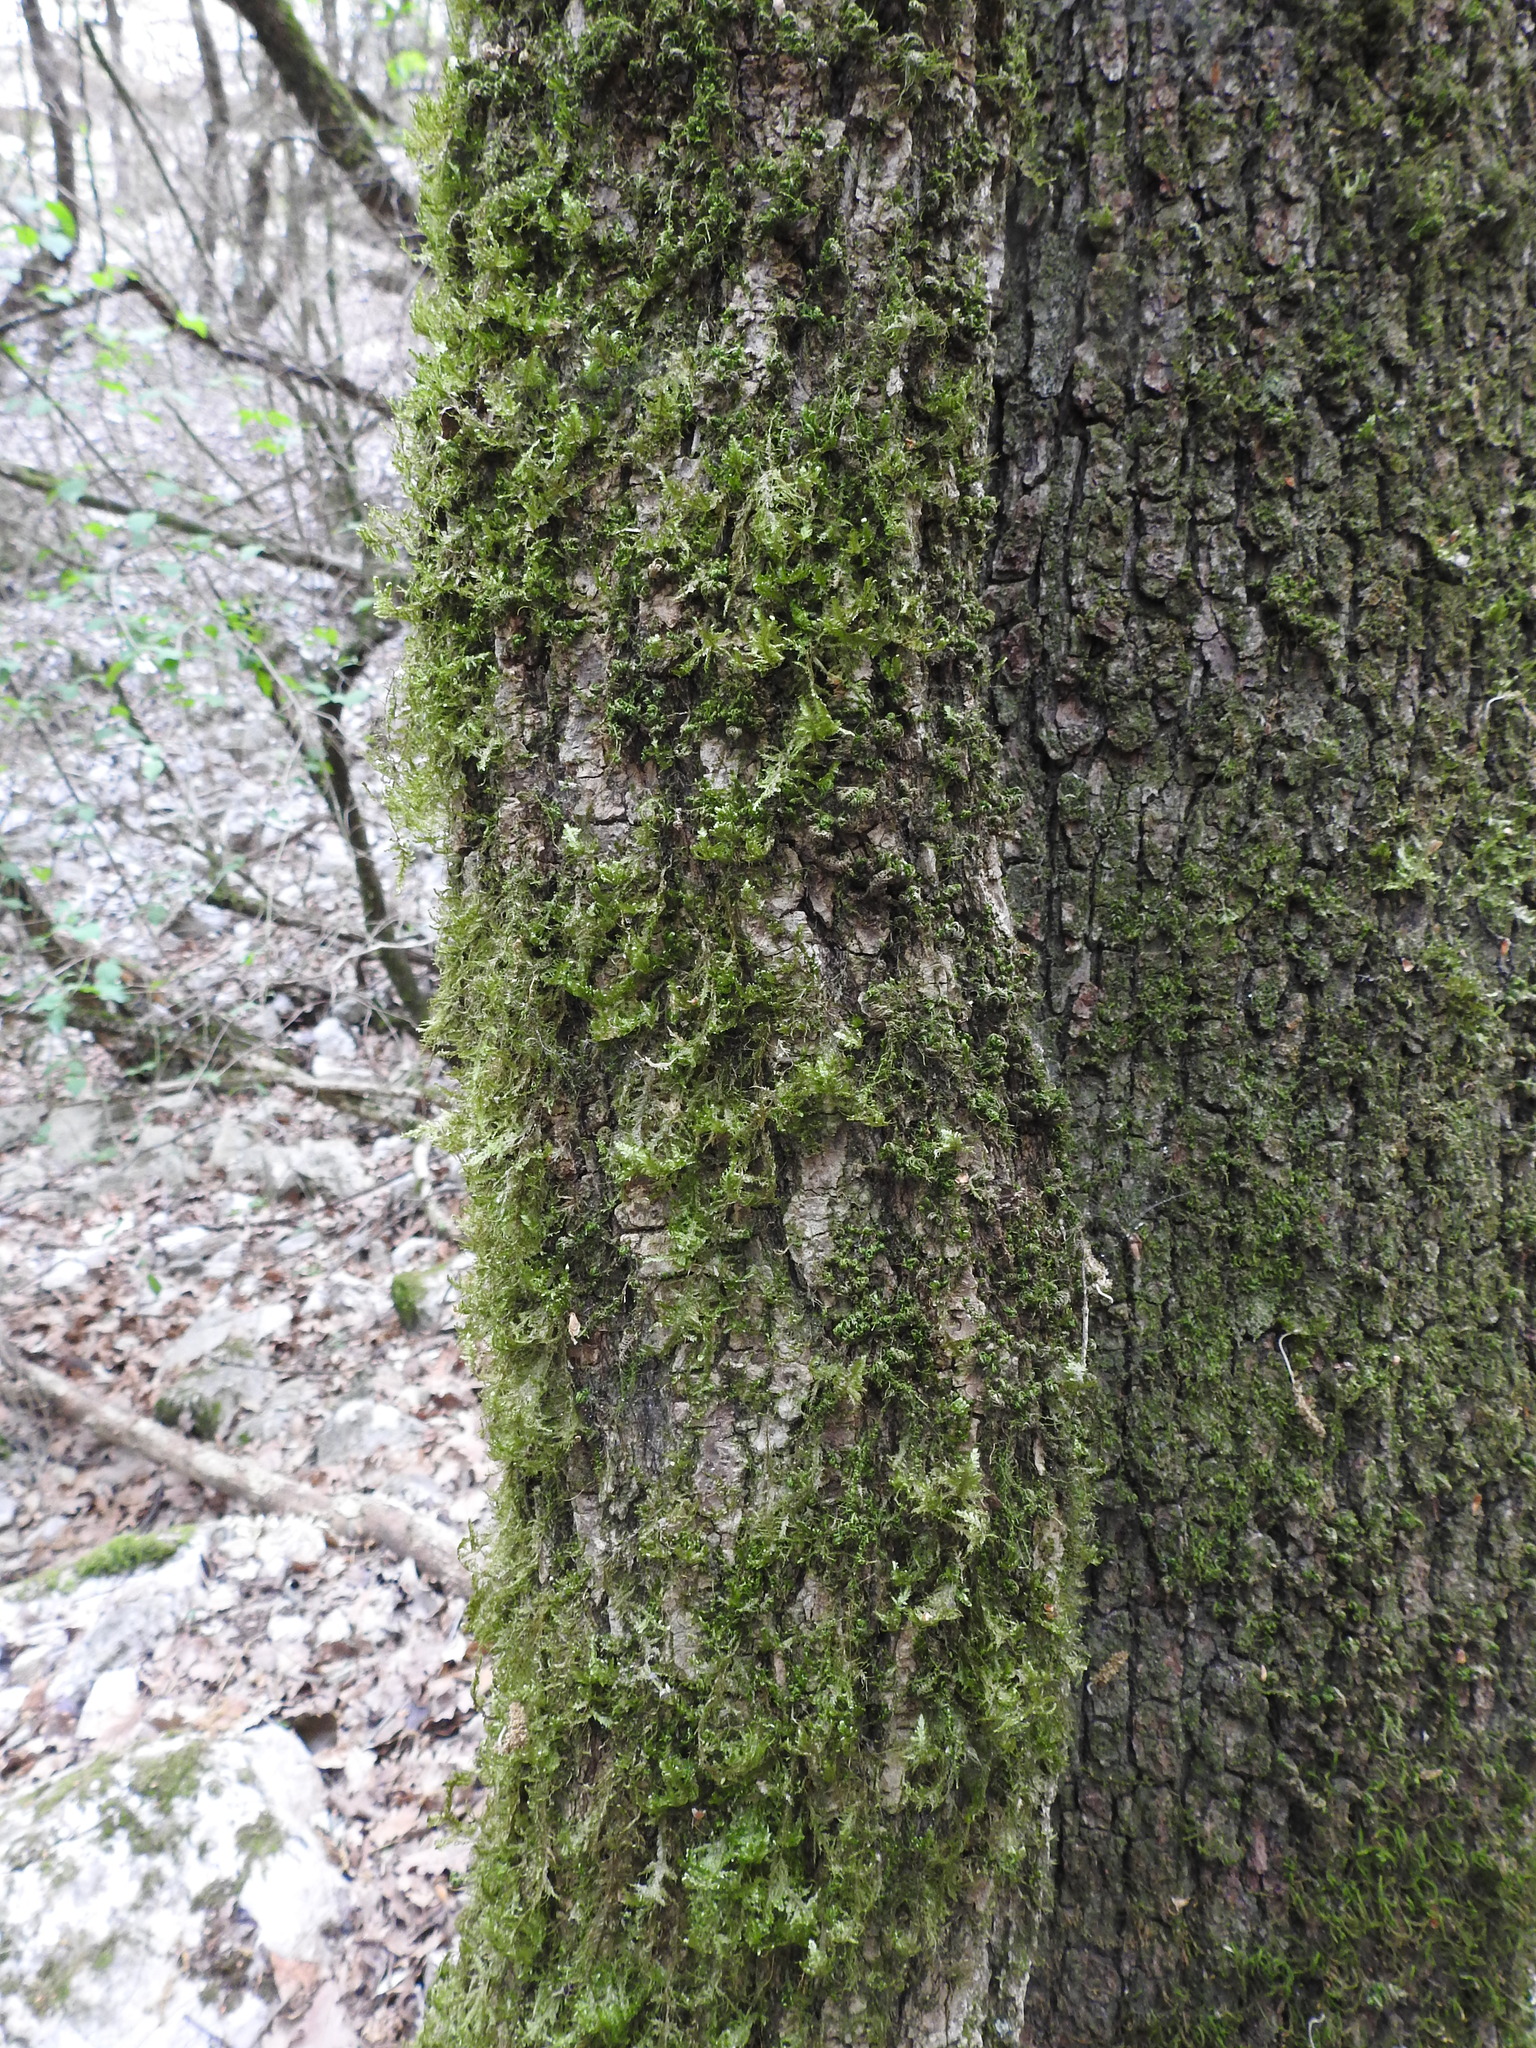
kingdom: Plantae
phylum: Tracheophyta
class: Magnoliopsida
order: Apiales
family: Araliaceae
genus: Hedera
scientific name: Hedera helix
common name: Ivy
